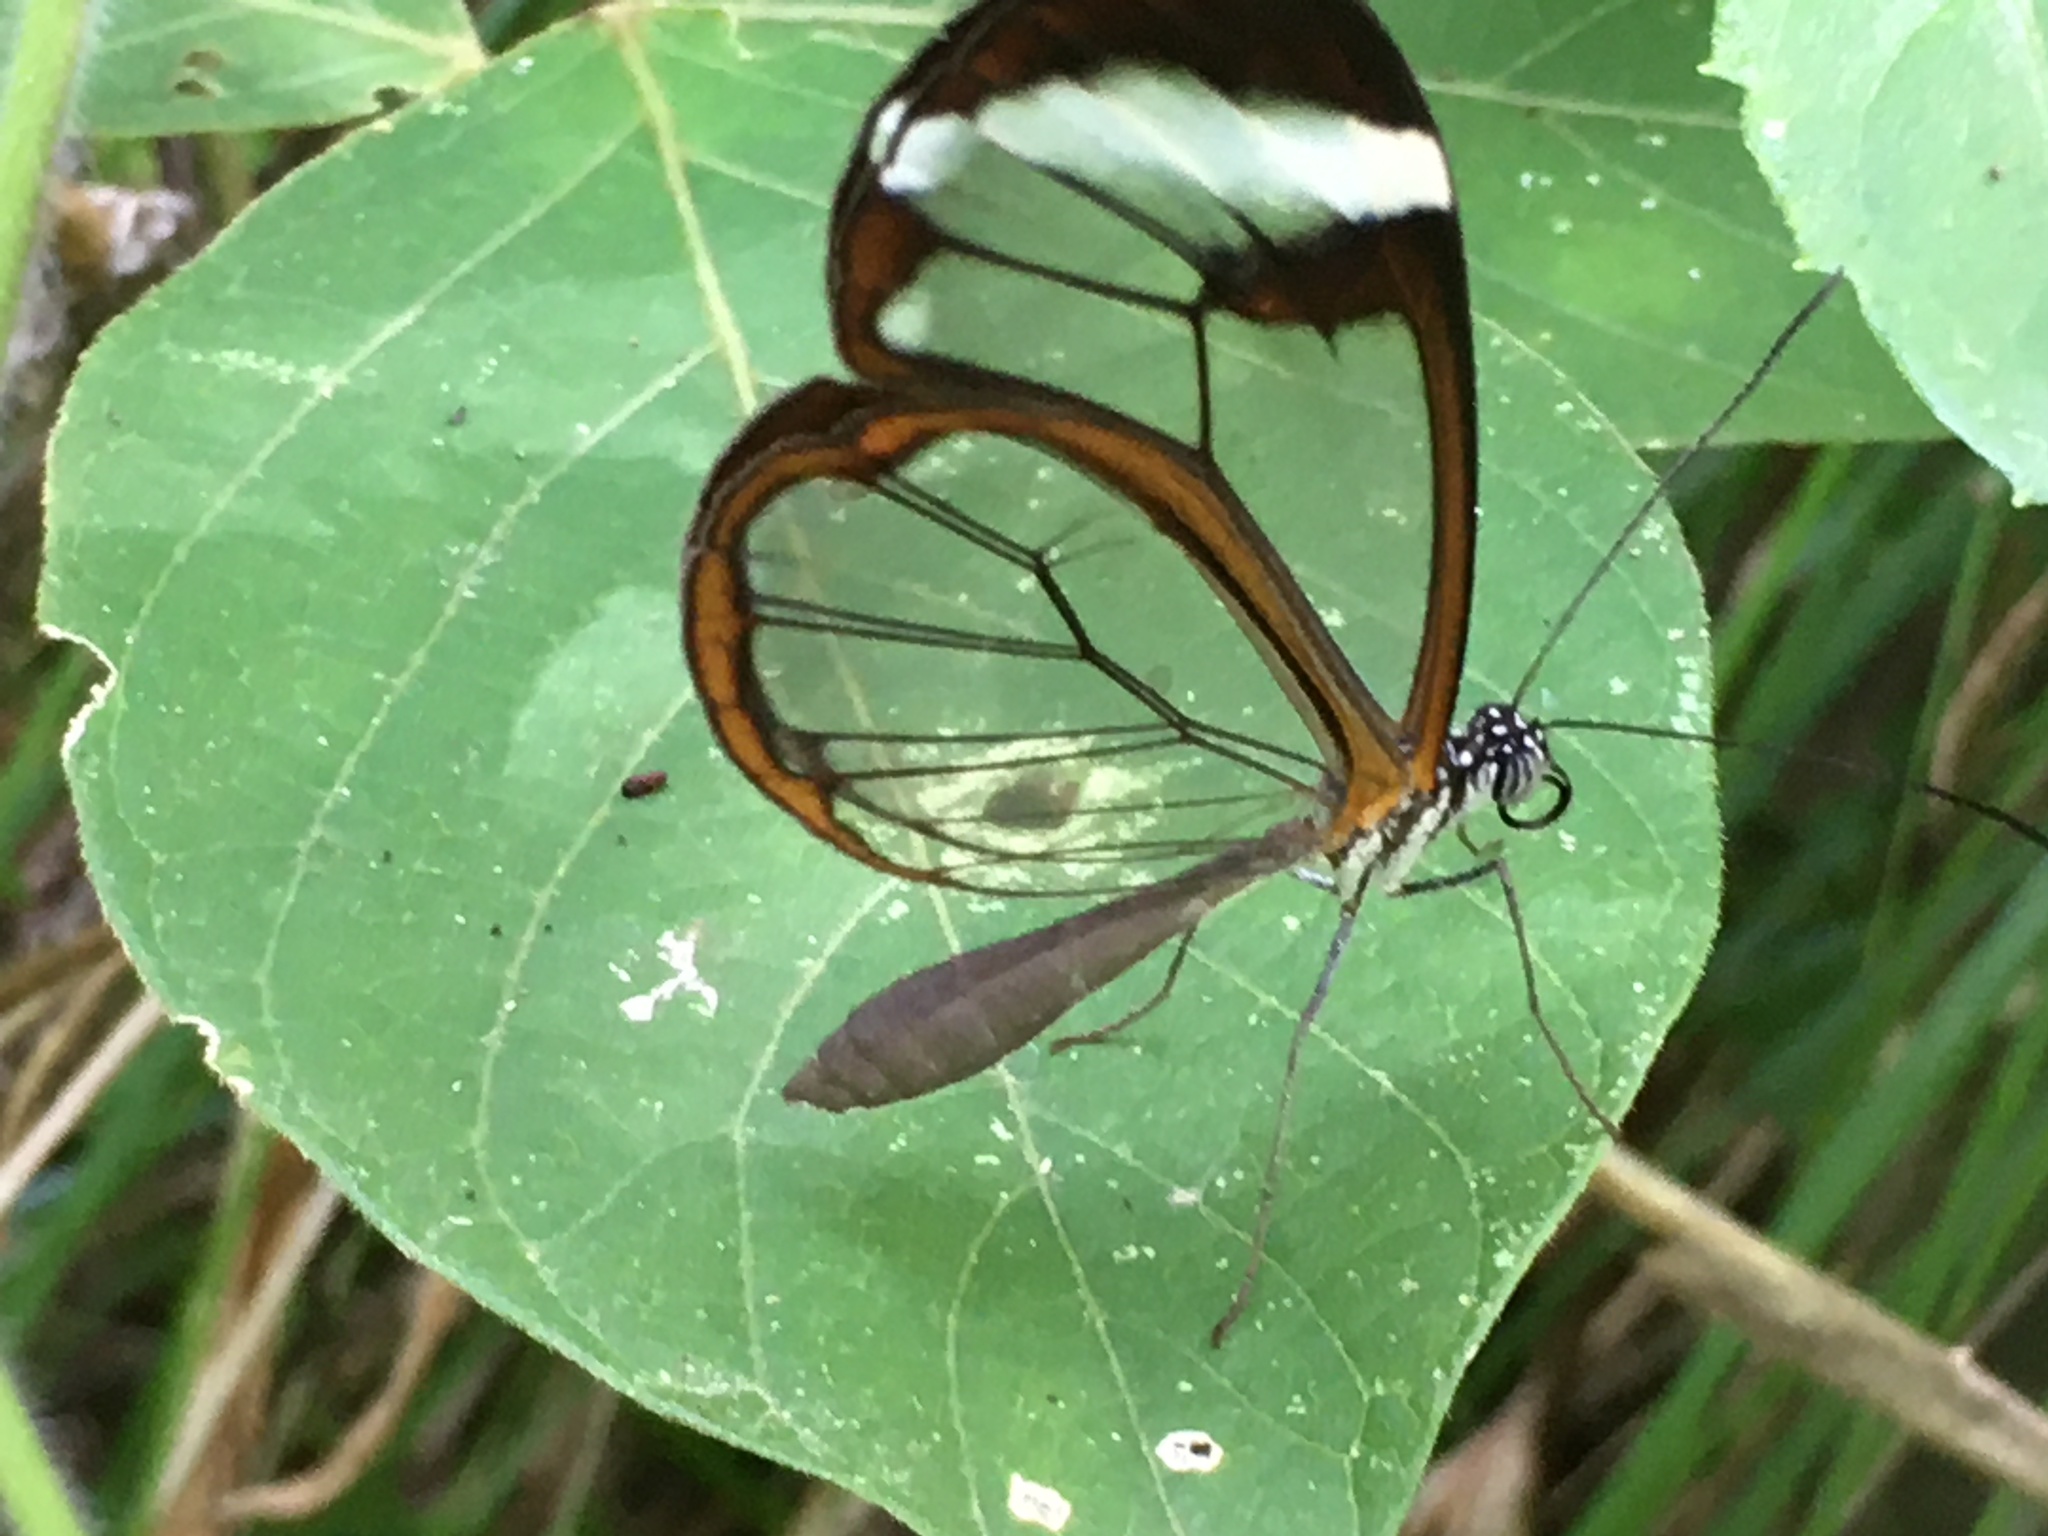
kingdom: Animalia
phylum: Arthropoda
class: Insecta
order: Lepidoptera
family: Nymphalidae
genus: Greta
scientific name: Greta morgane
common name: Thick-tipped greta
